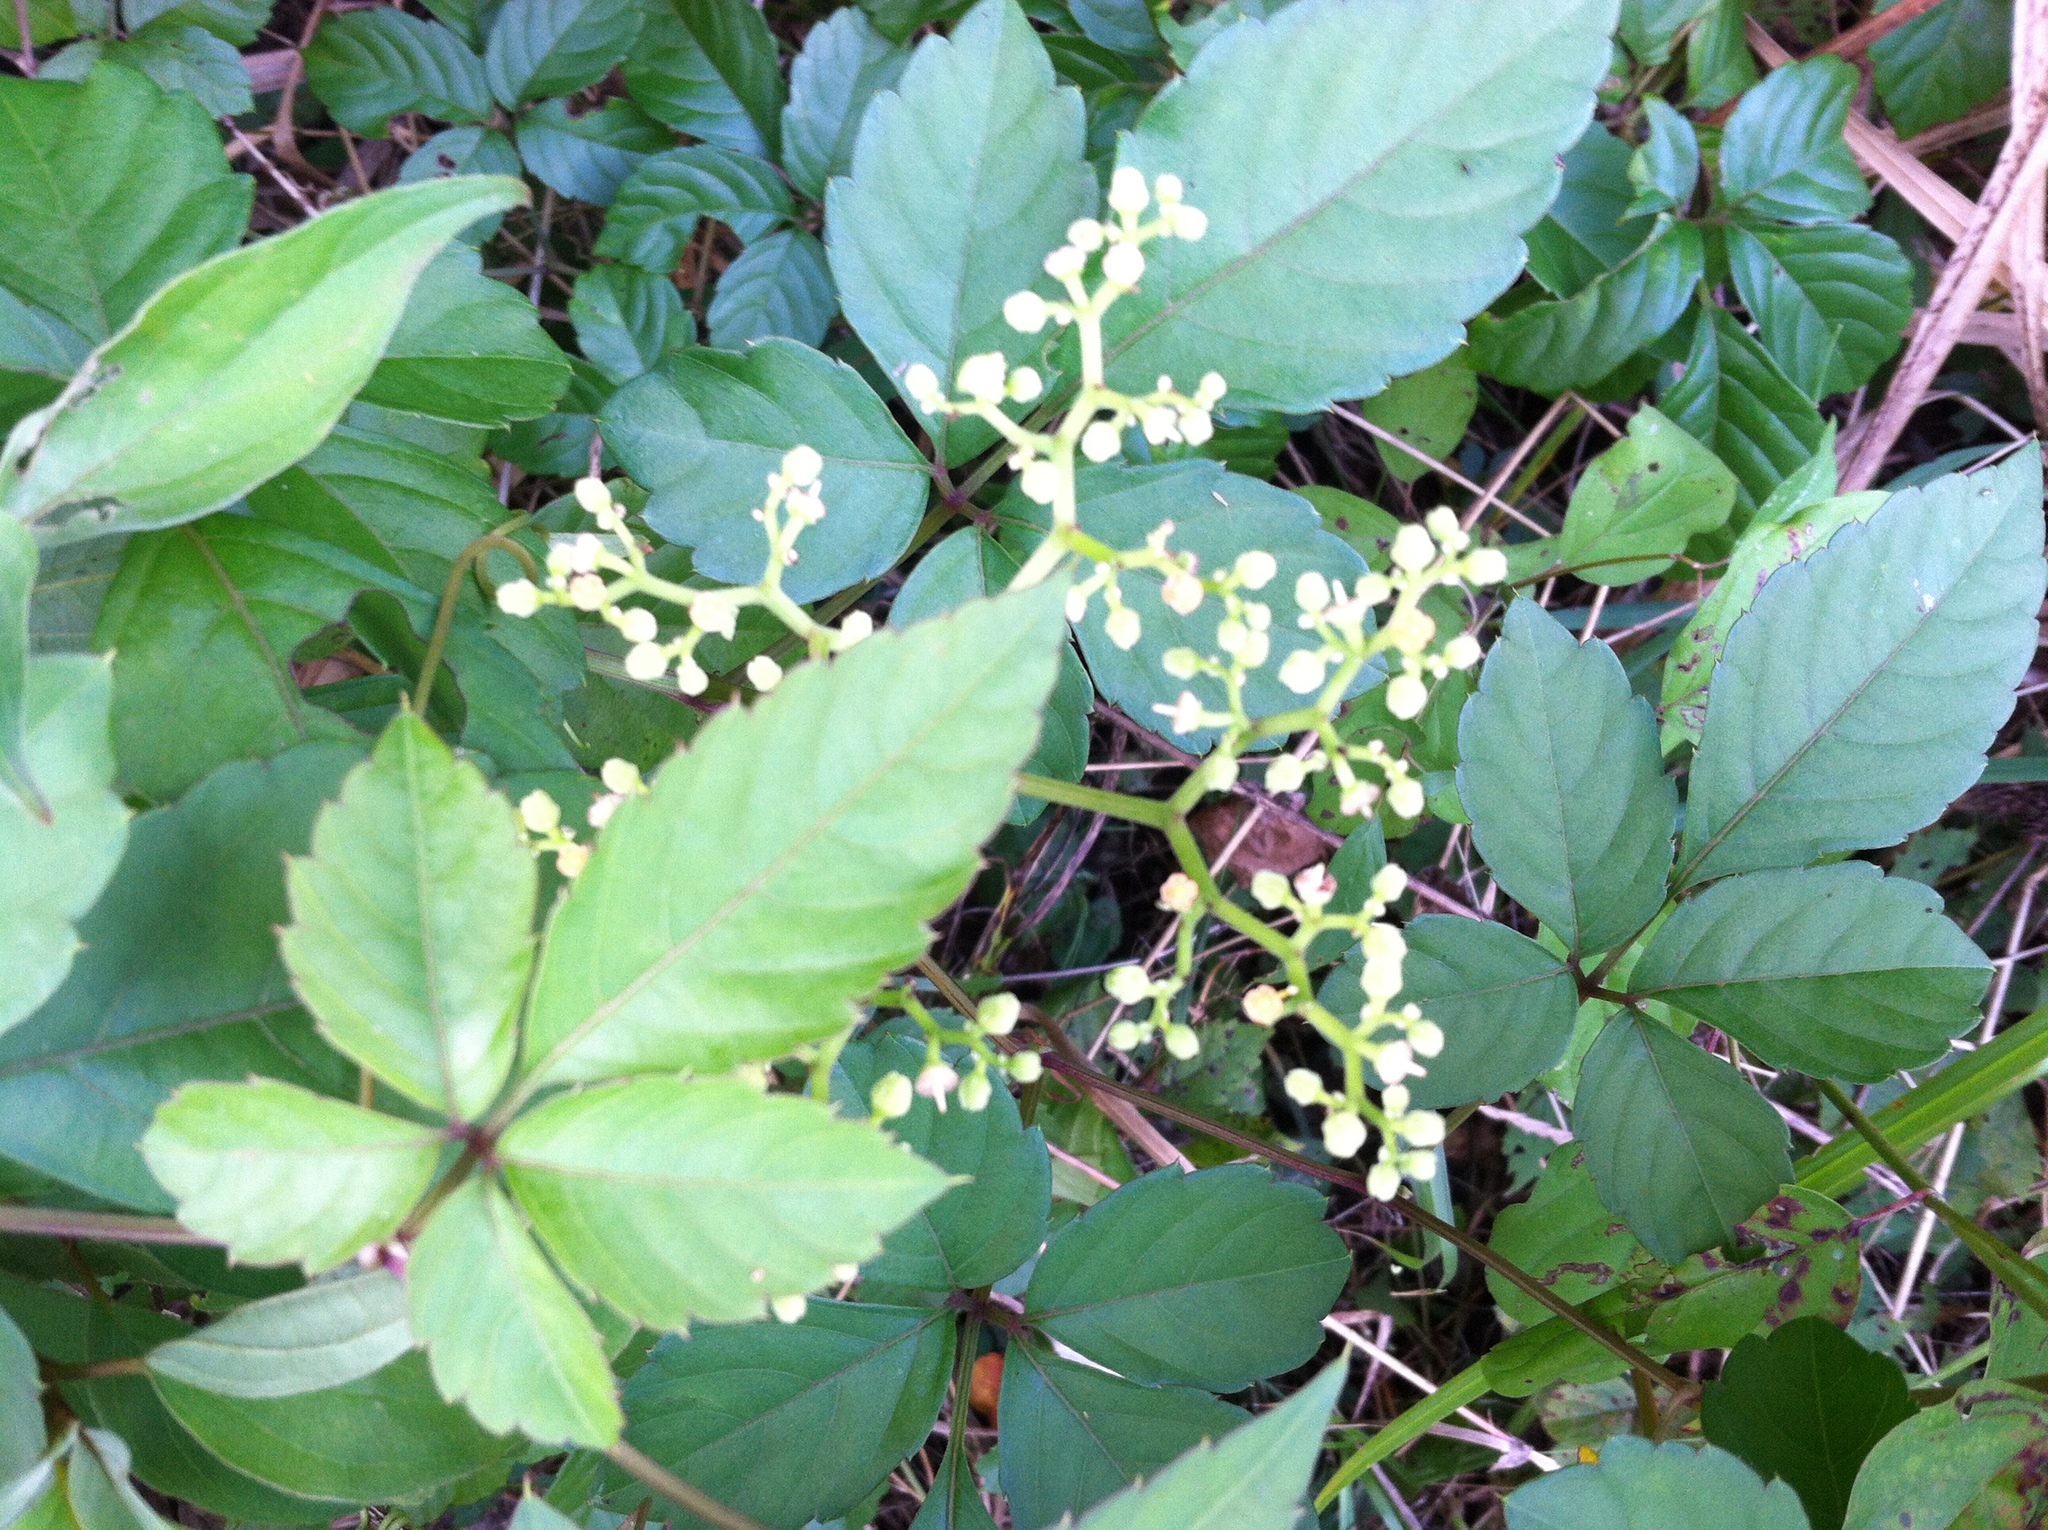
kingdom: Plantae
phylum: Tracheophyta
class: Magnoliopsida
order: Vitales
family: Vitaceae
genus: Causonis
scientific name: Causonis japonica
